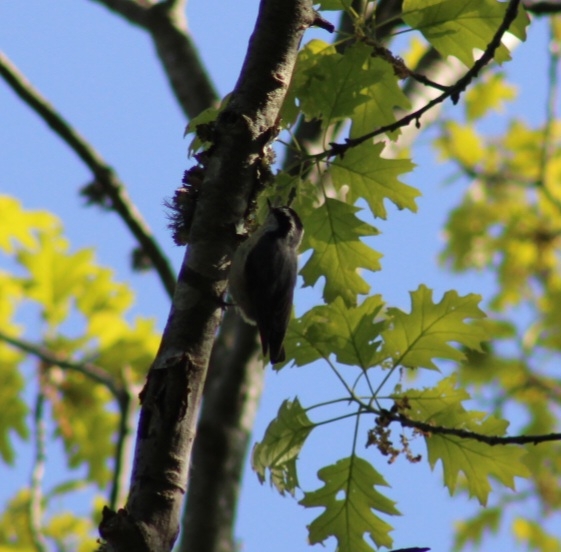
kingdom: Animalia
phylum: Chordata
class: Aves
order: Passeriformes
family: Sittidae
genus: Sitta
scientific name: Sitta canadensis
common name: Red-breasted nuthatch
